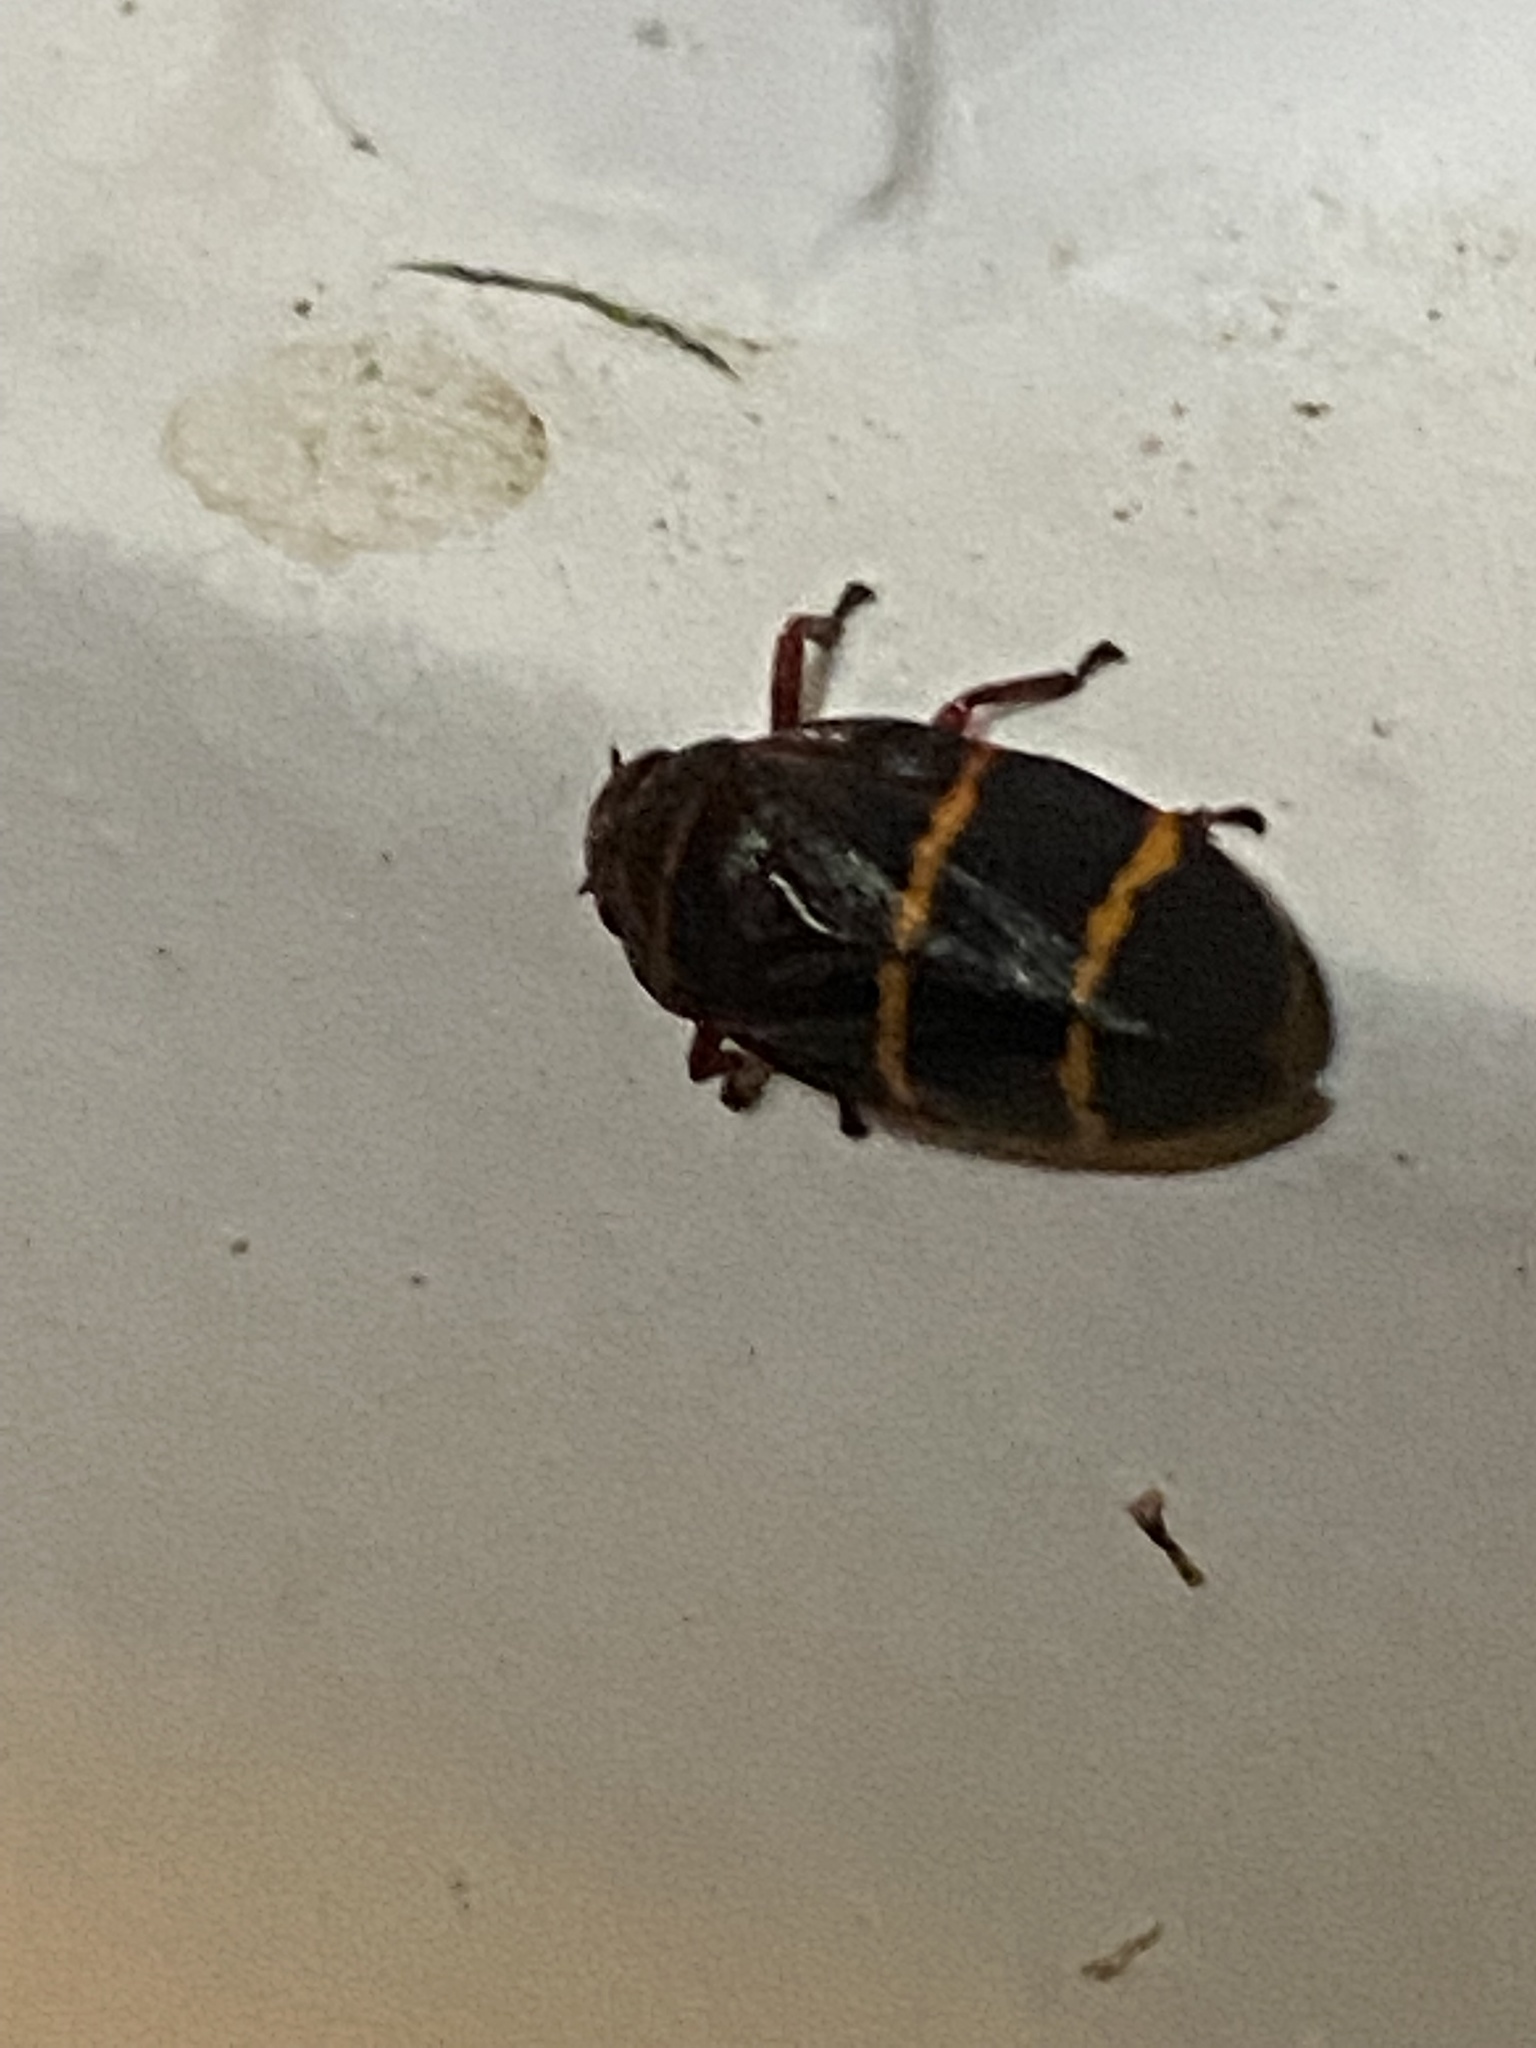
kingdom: Animalia
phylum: Arthropoda
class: Insecta
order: Hemiptera
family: Cercopidae
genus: Prosapia
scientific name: Prosapia bicincta
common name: Twolined spittlebug
